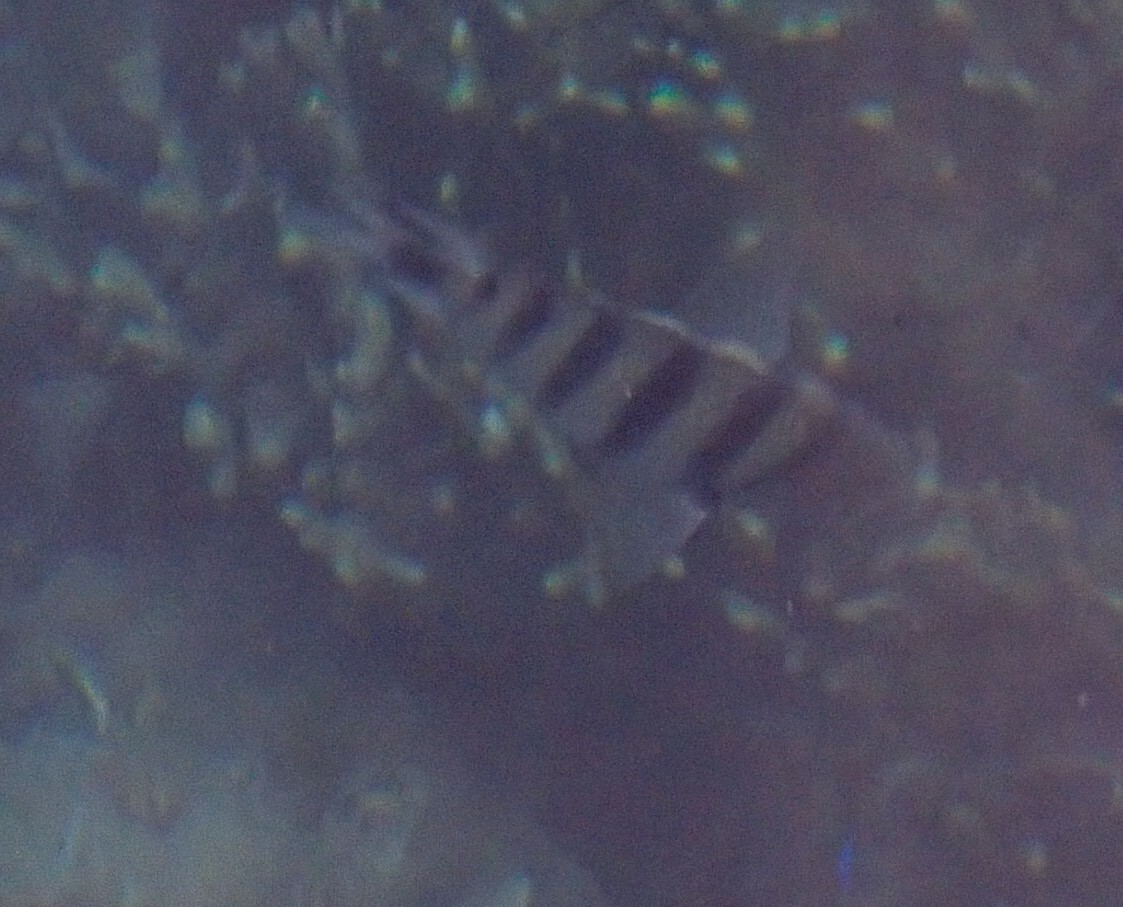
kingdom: Animalia
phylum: Chordata
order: Perciformes
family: Pomacentridae
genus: Abudefduf
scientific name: Abudefduf lorenzi
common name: Black-tail sergeant
